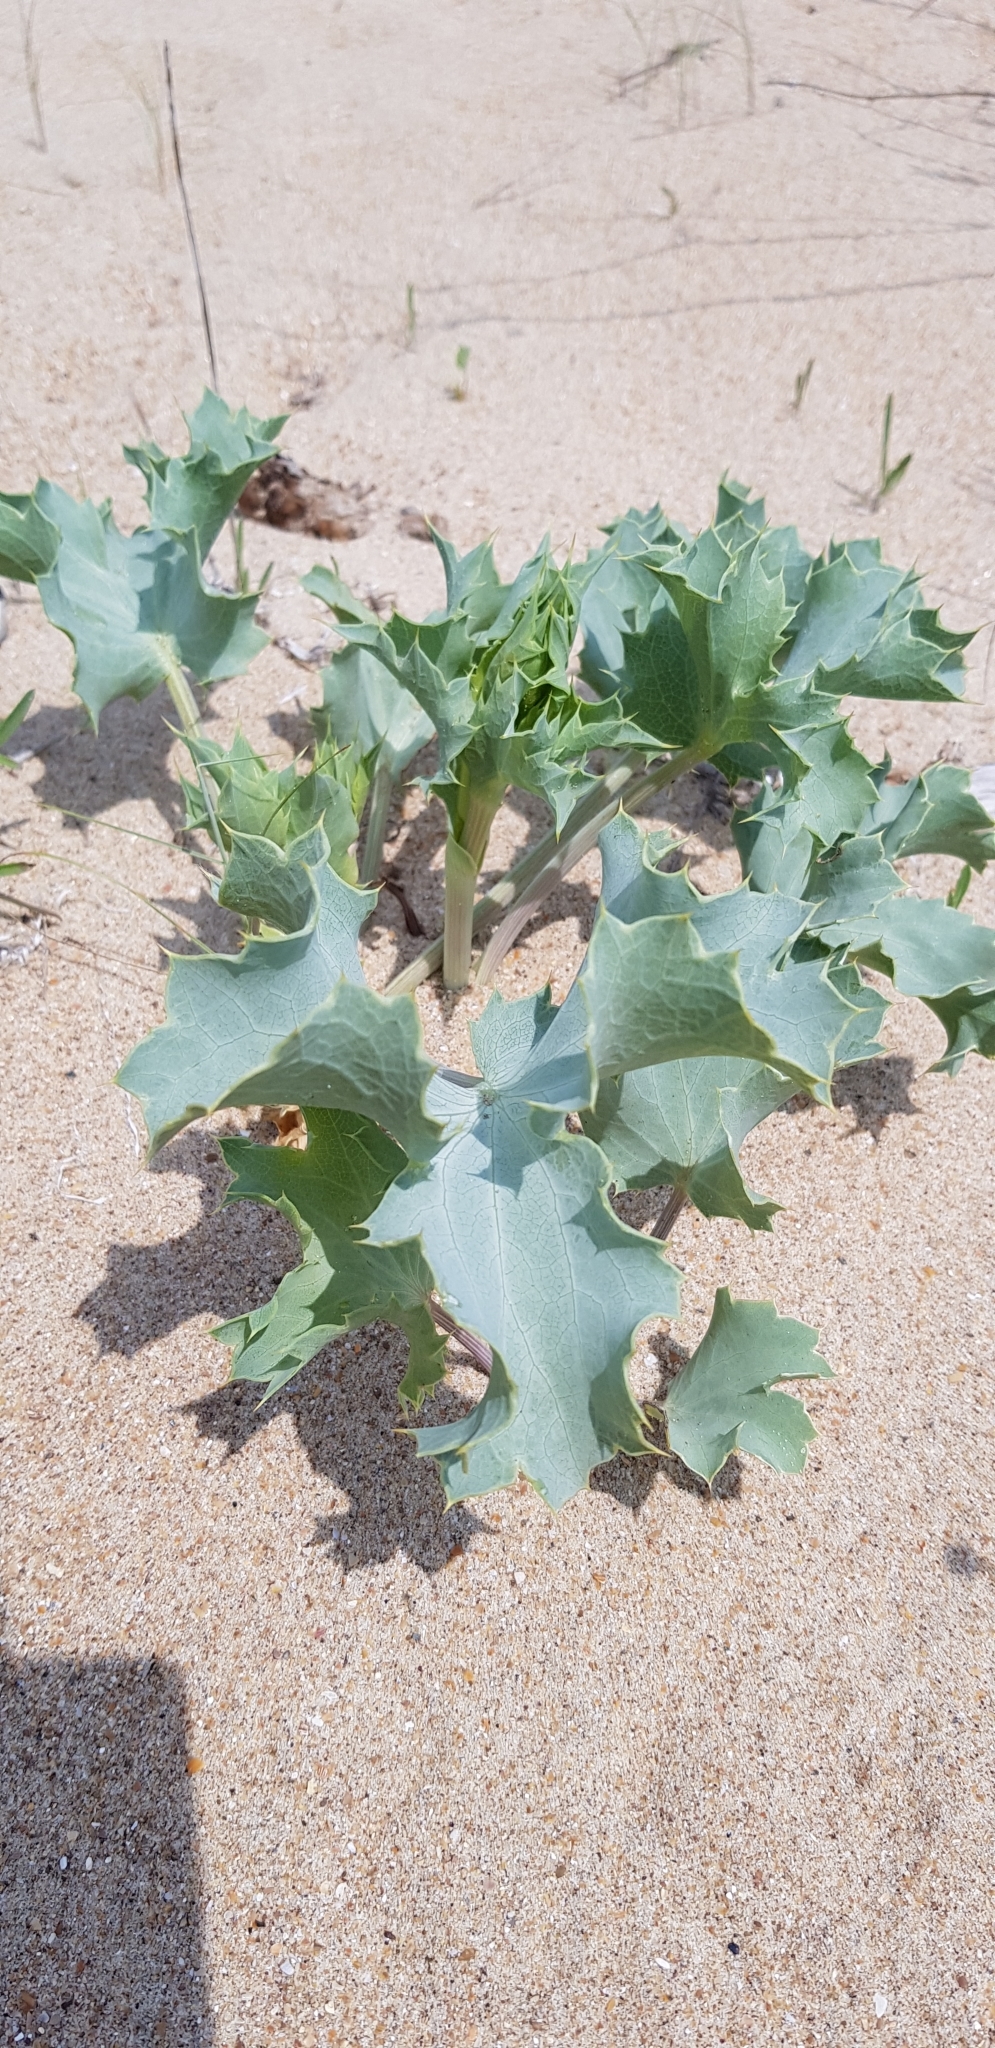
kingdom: Plantae
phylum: Tracheophyta
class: Magnoliopsida
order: Apiales
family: Apiaceae
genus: Eryngium
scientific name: Eryngium maritimum
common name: Sea-holly
